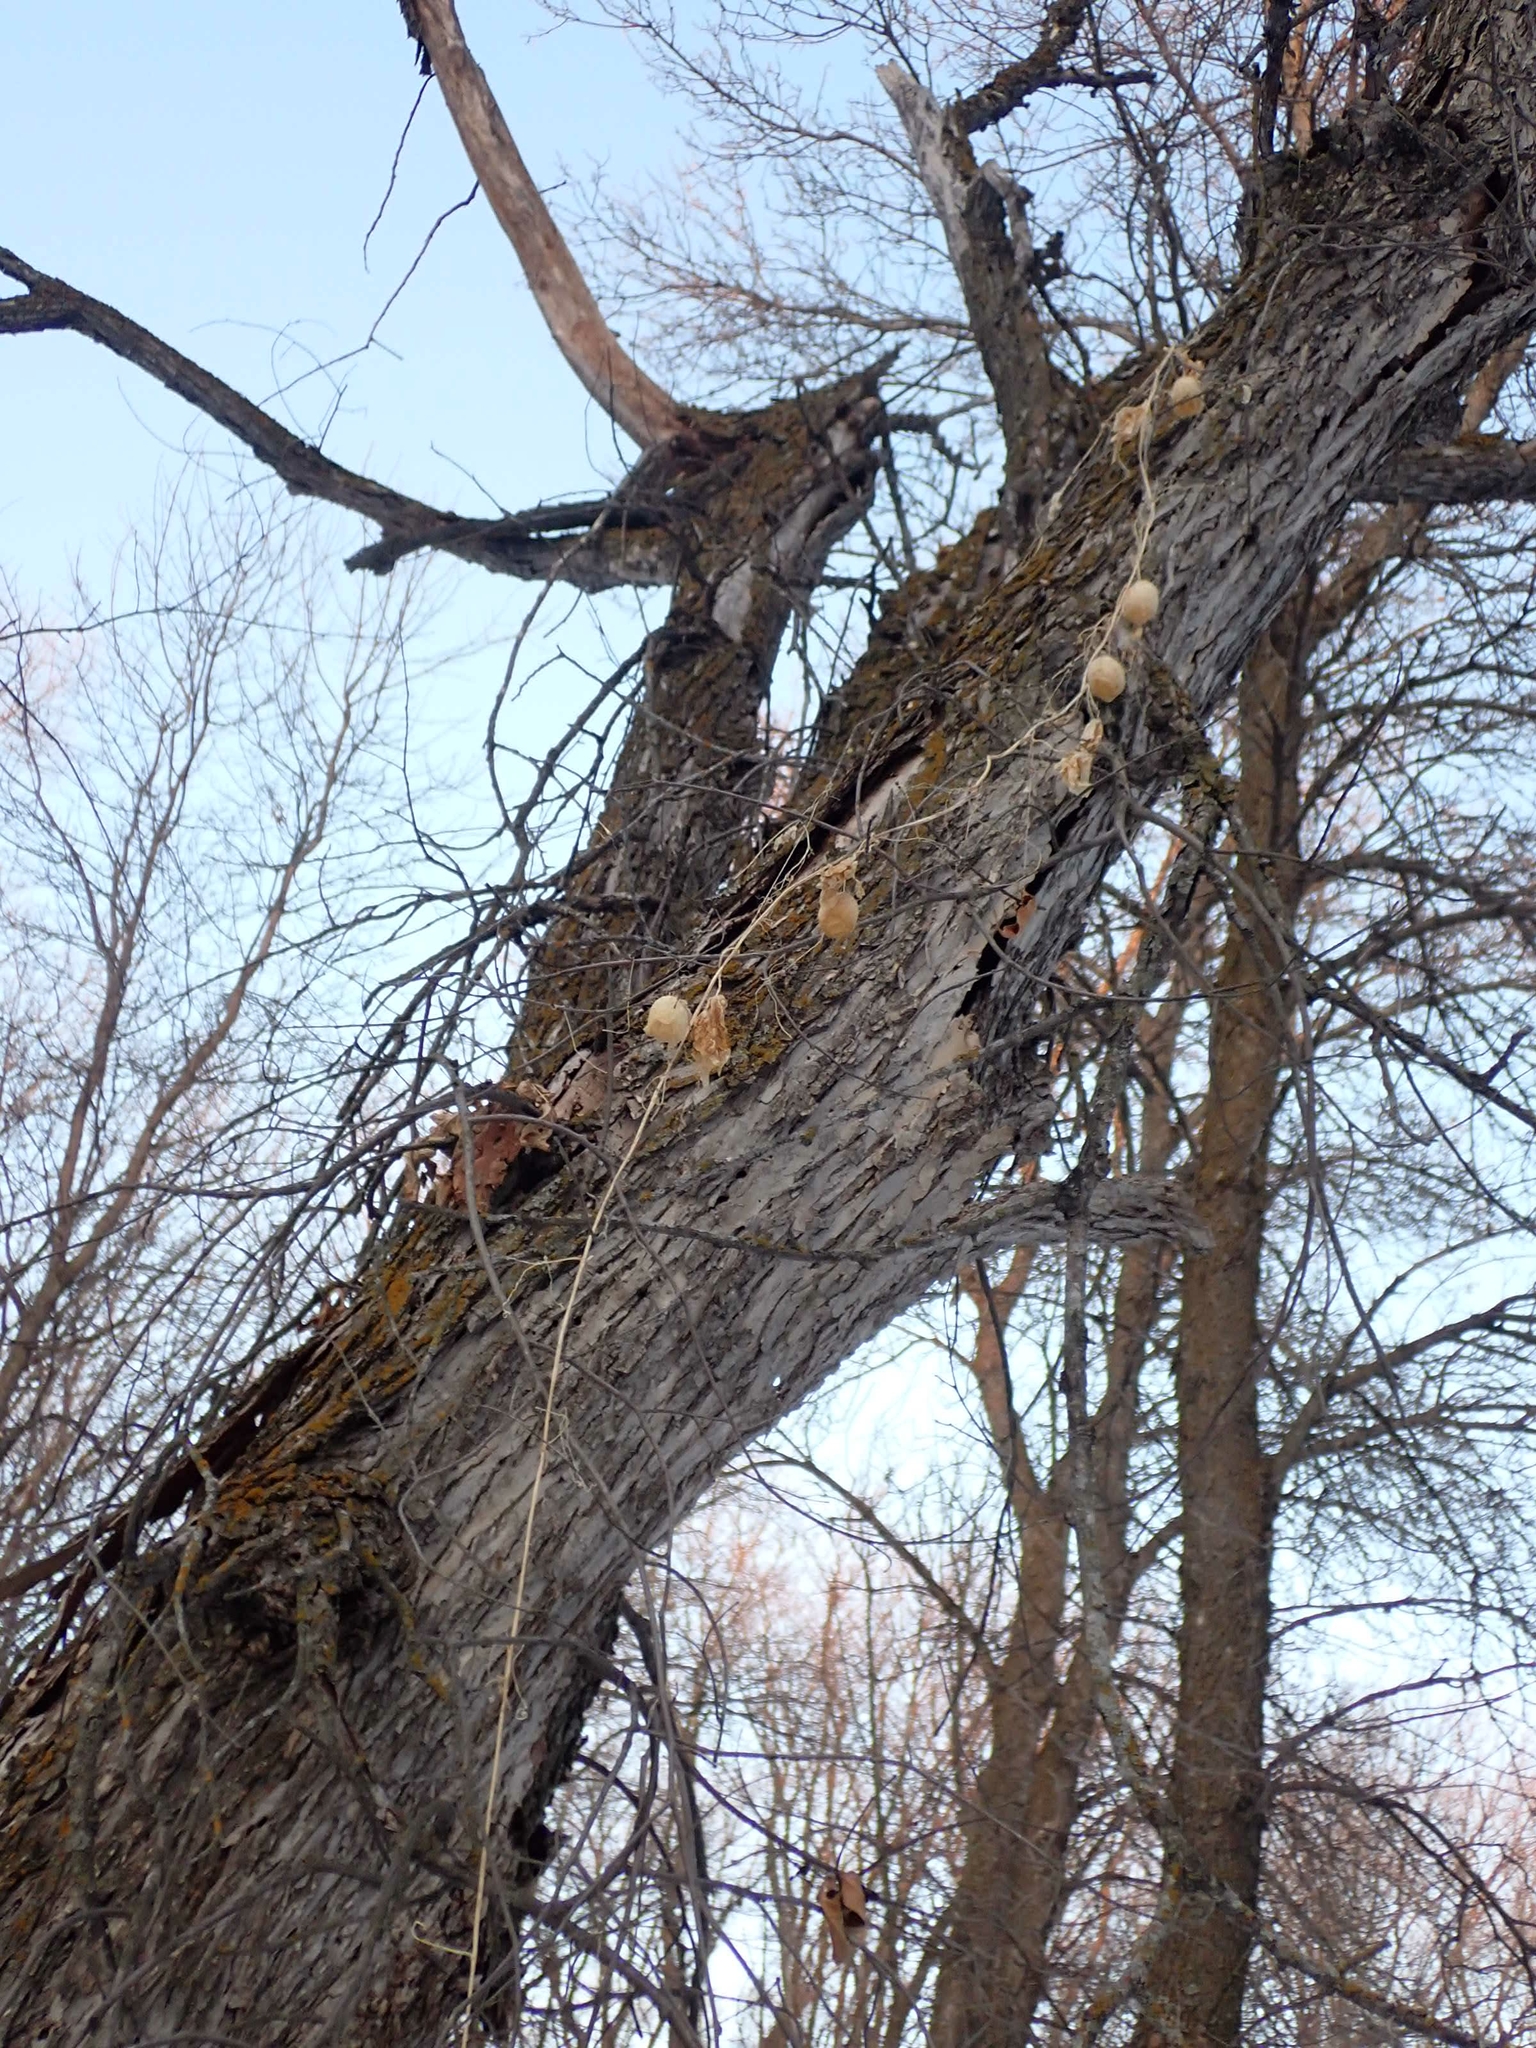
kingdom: Plantae
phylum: Tracheophyta
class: Magnoliopsida
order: Cucurbitales
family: Cucurbitaceae
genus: Echinocystis
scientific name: Echinocystis lobata
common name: Wild cucumber
